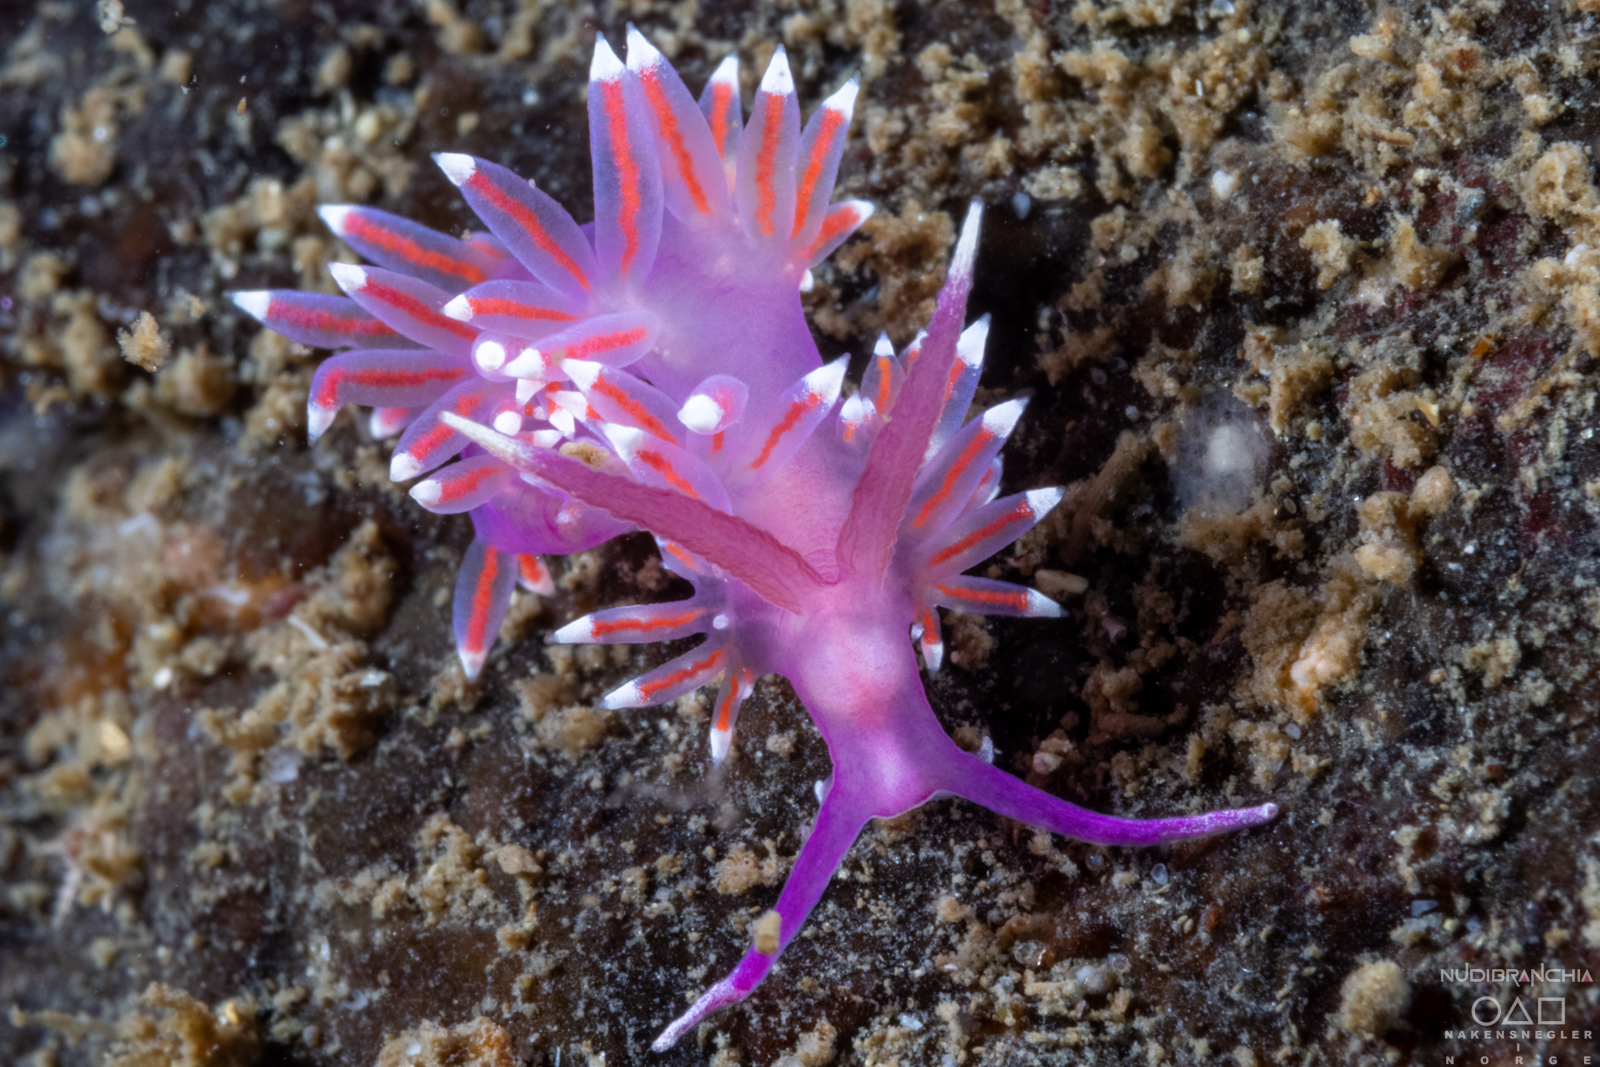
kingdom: Animalia
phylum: Mollusca
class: Gastropoda
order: Nudibranchia
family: Flabellinidae
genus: Edmundsella
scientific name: Edmundsella pedata
